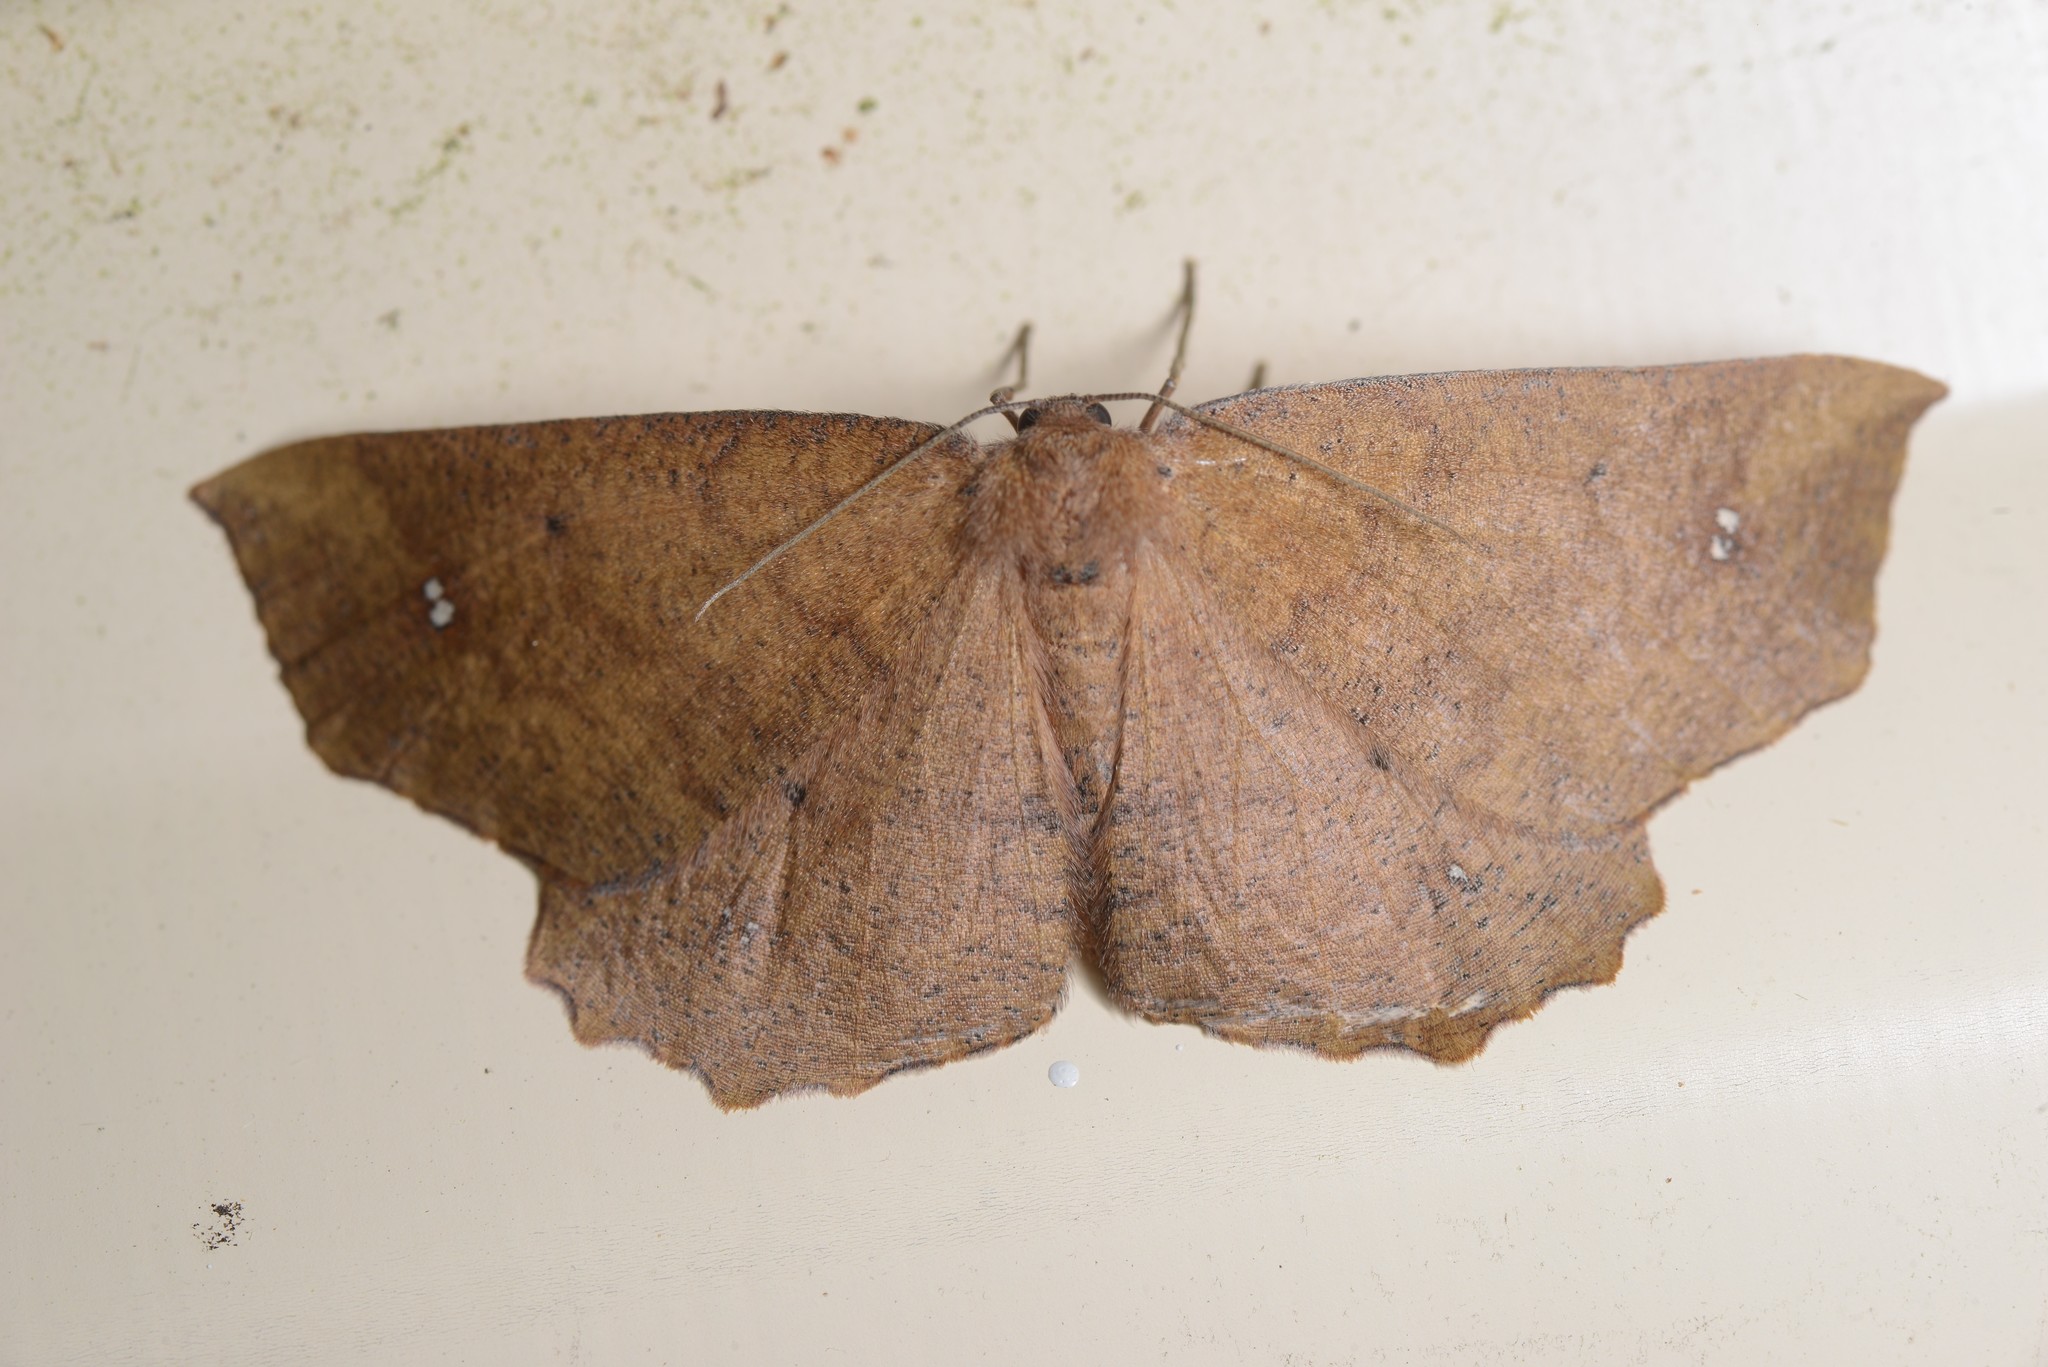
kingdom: Animalia
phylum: Arthropoda
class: Insecta
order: Lepidoptera
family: Geometridae
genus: Xyridacma
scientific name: Xyridacma ustaria
